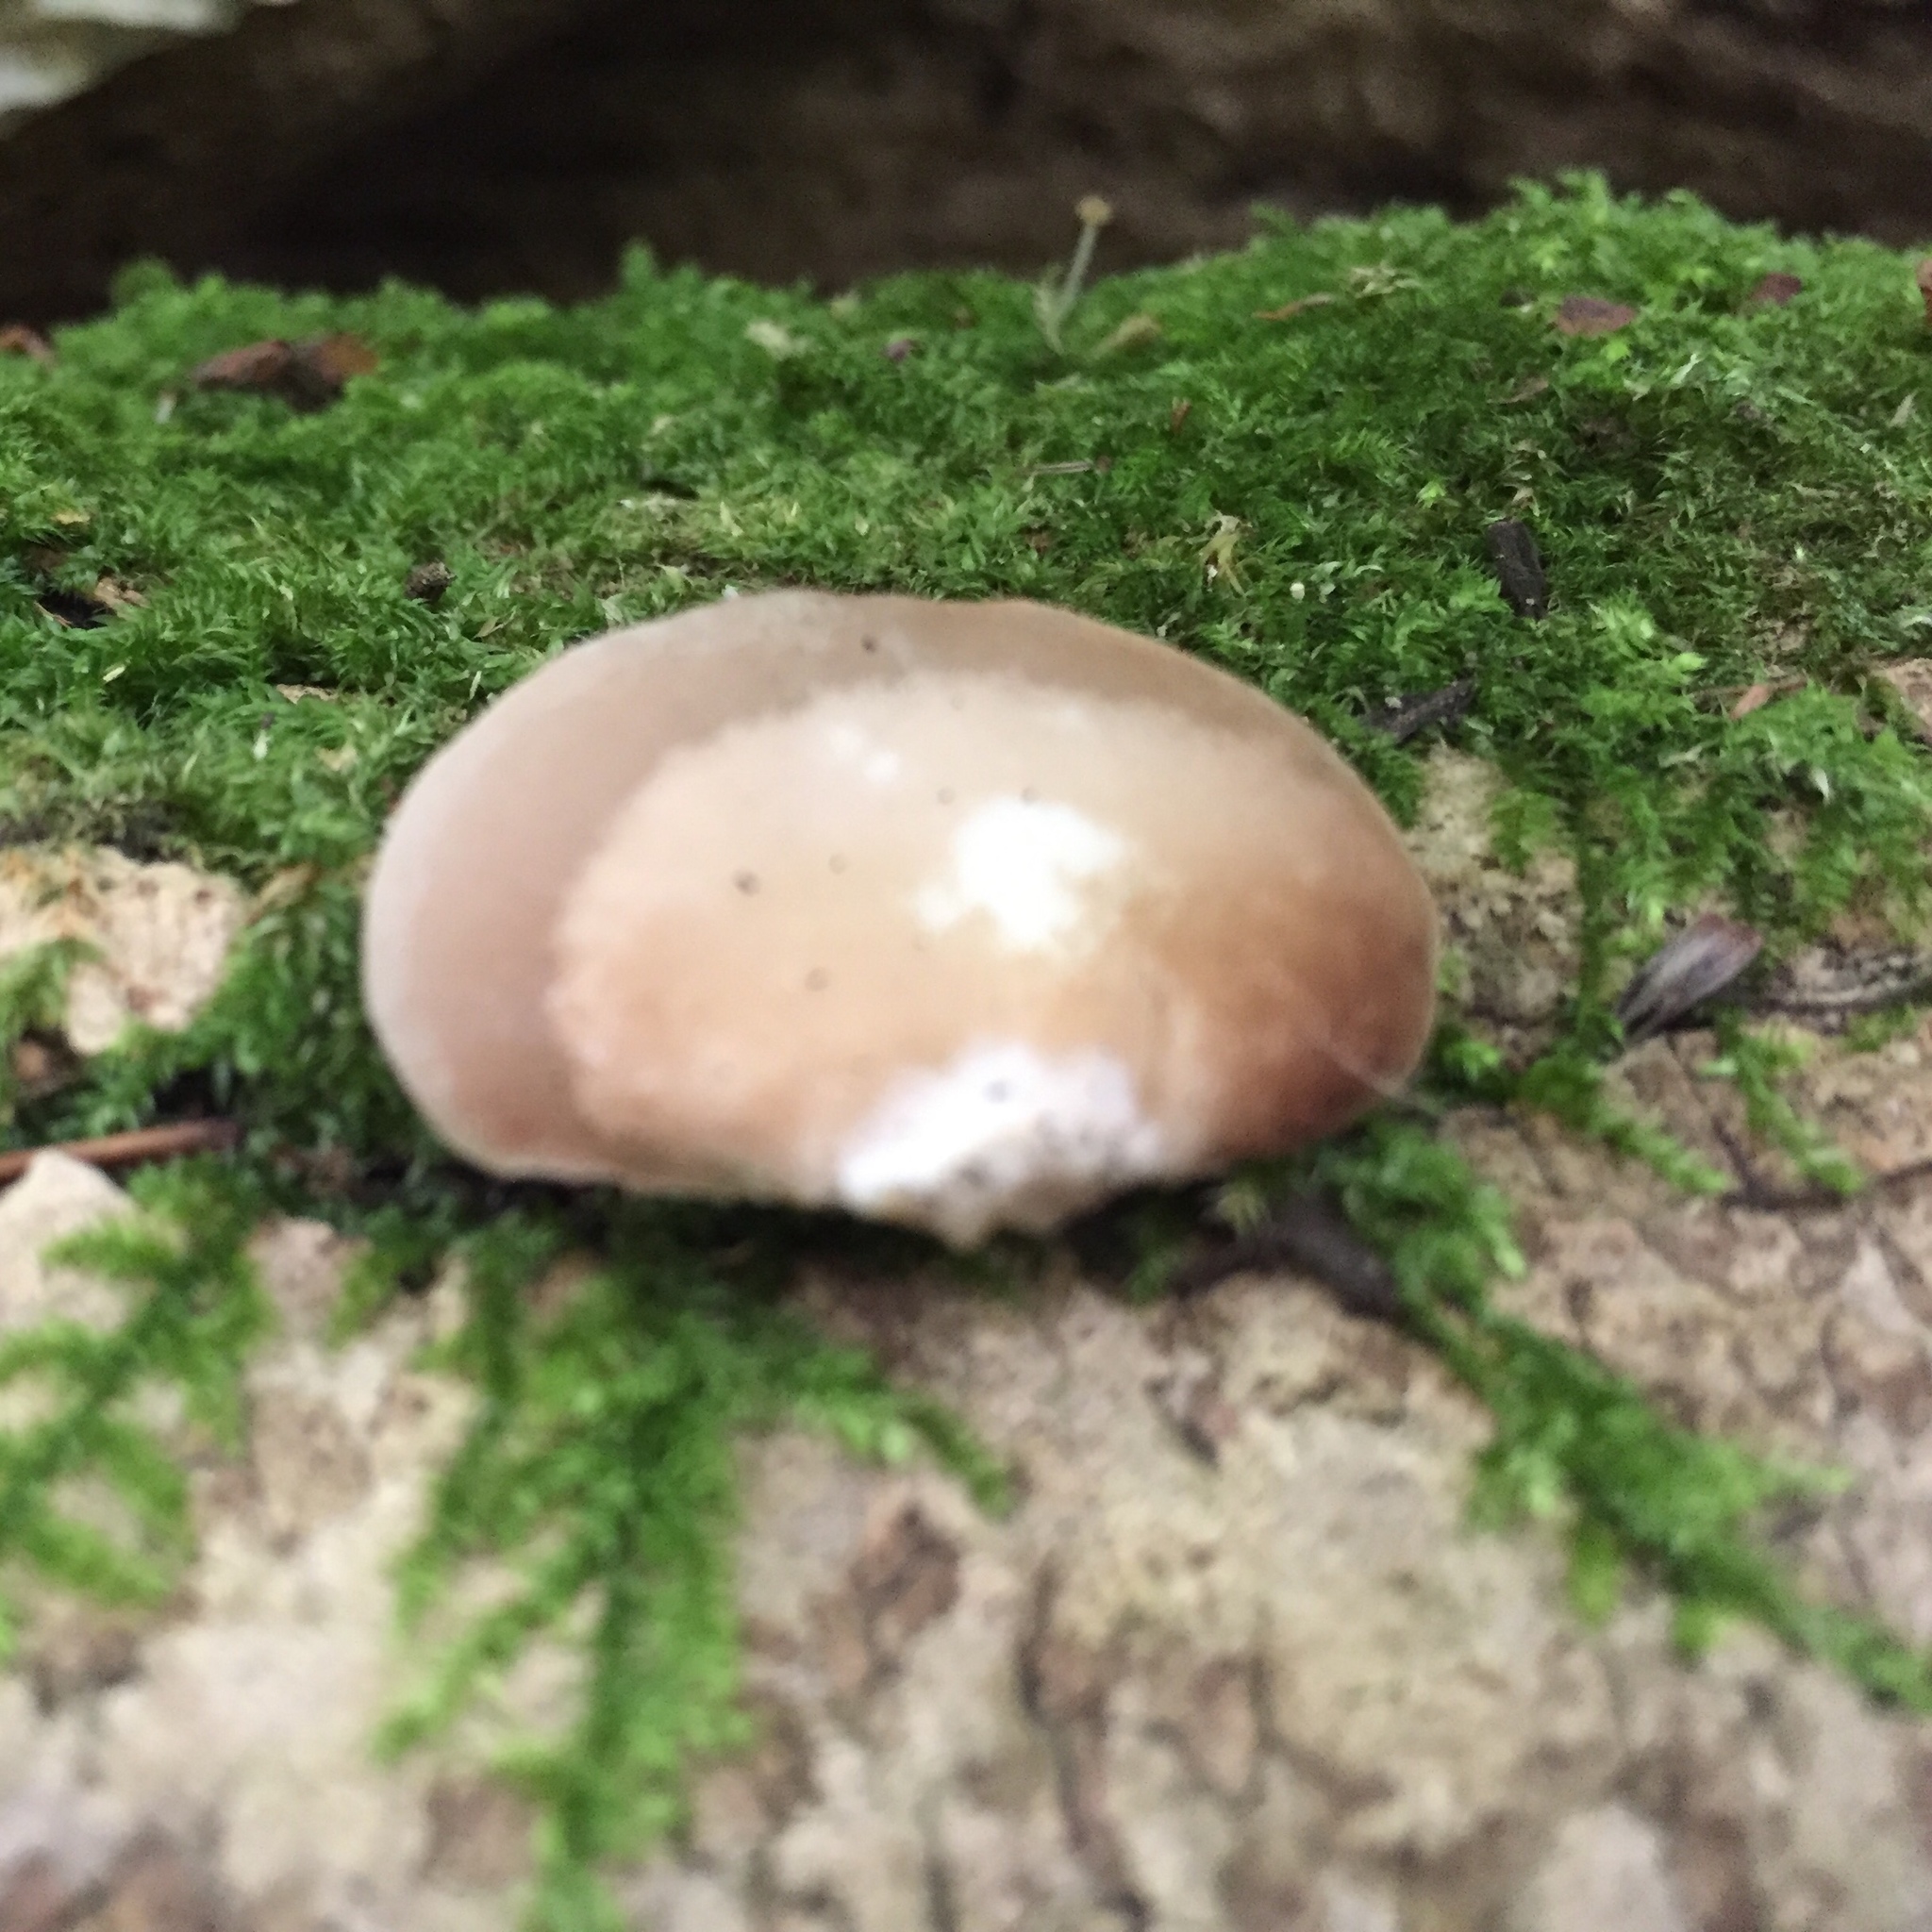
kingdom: Fungi
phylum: Basidiomycota
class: Agaricomycetes
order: Agaricales
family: Crepidotaceae
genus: Crepidotus
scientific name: Crepidotus applanatus
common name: Flat crep
